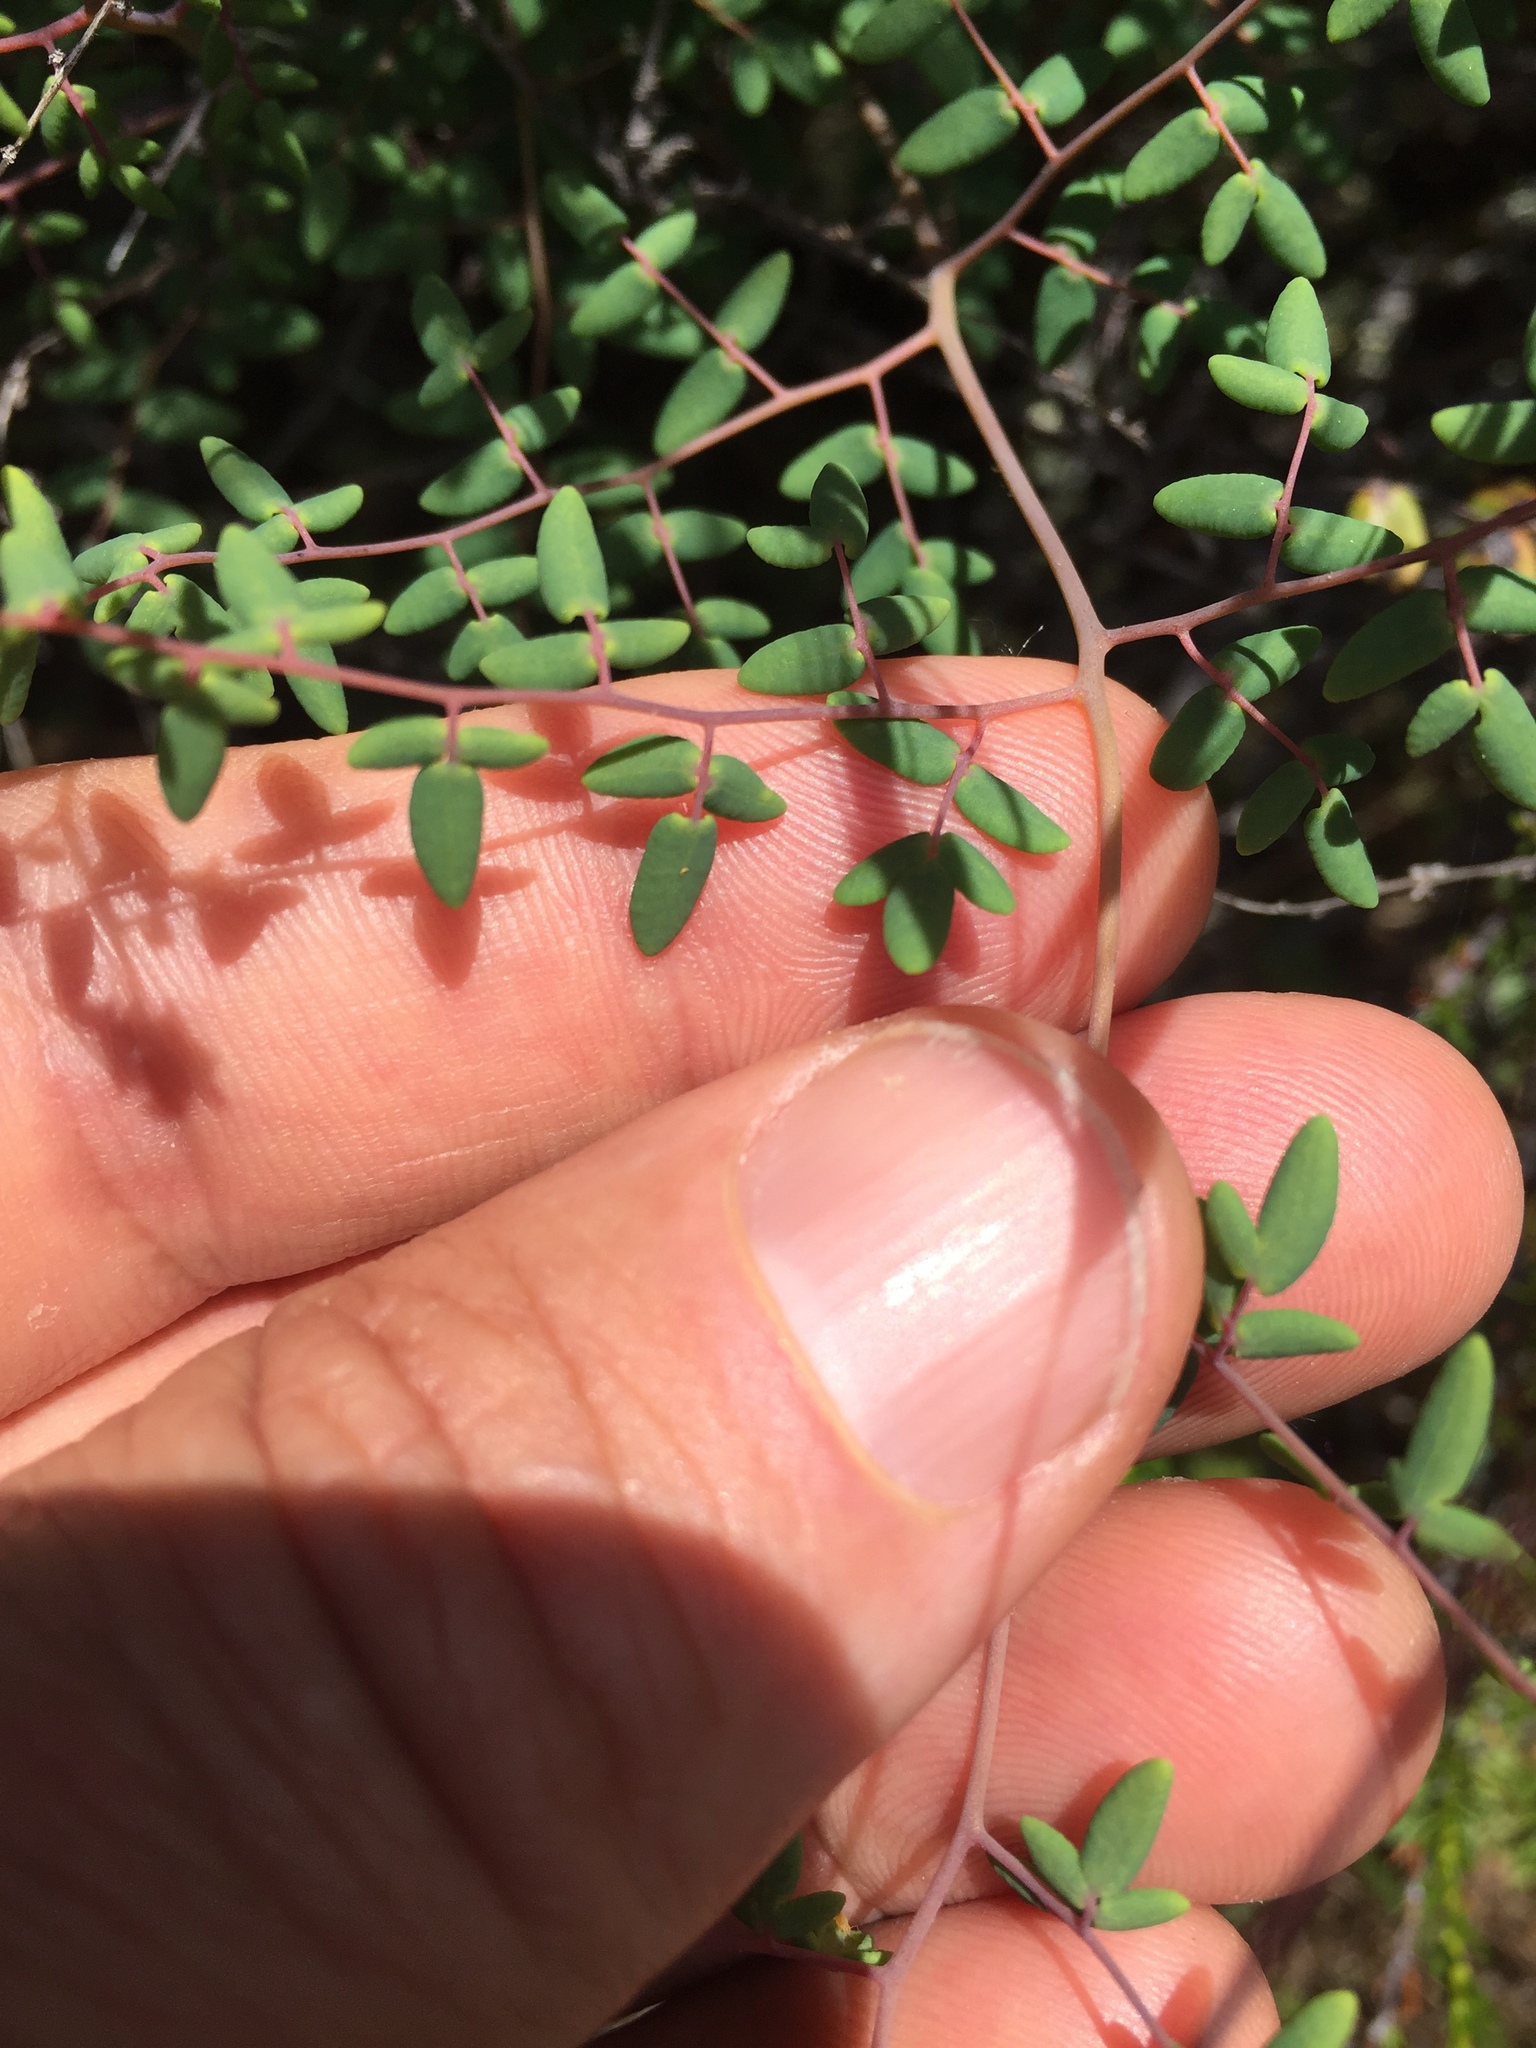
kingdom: Plantae
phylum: Tracheophyta
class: Polypodiopsida
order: Polypodiales
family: Pteridaceae
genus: Pellaea
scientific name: Pellaea andromedifolia
